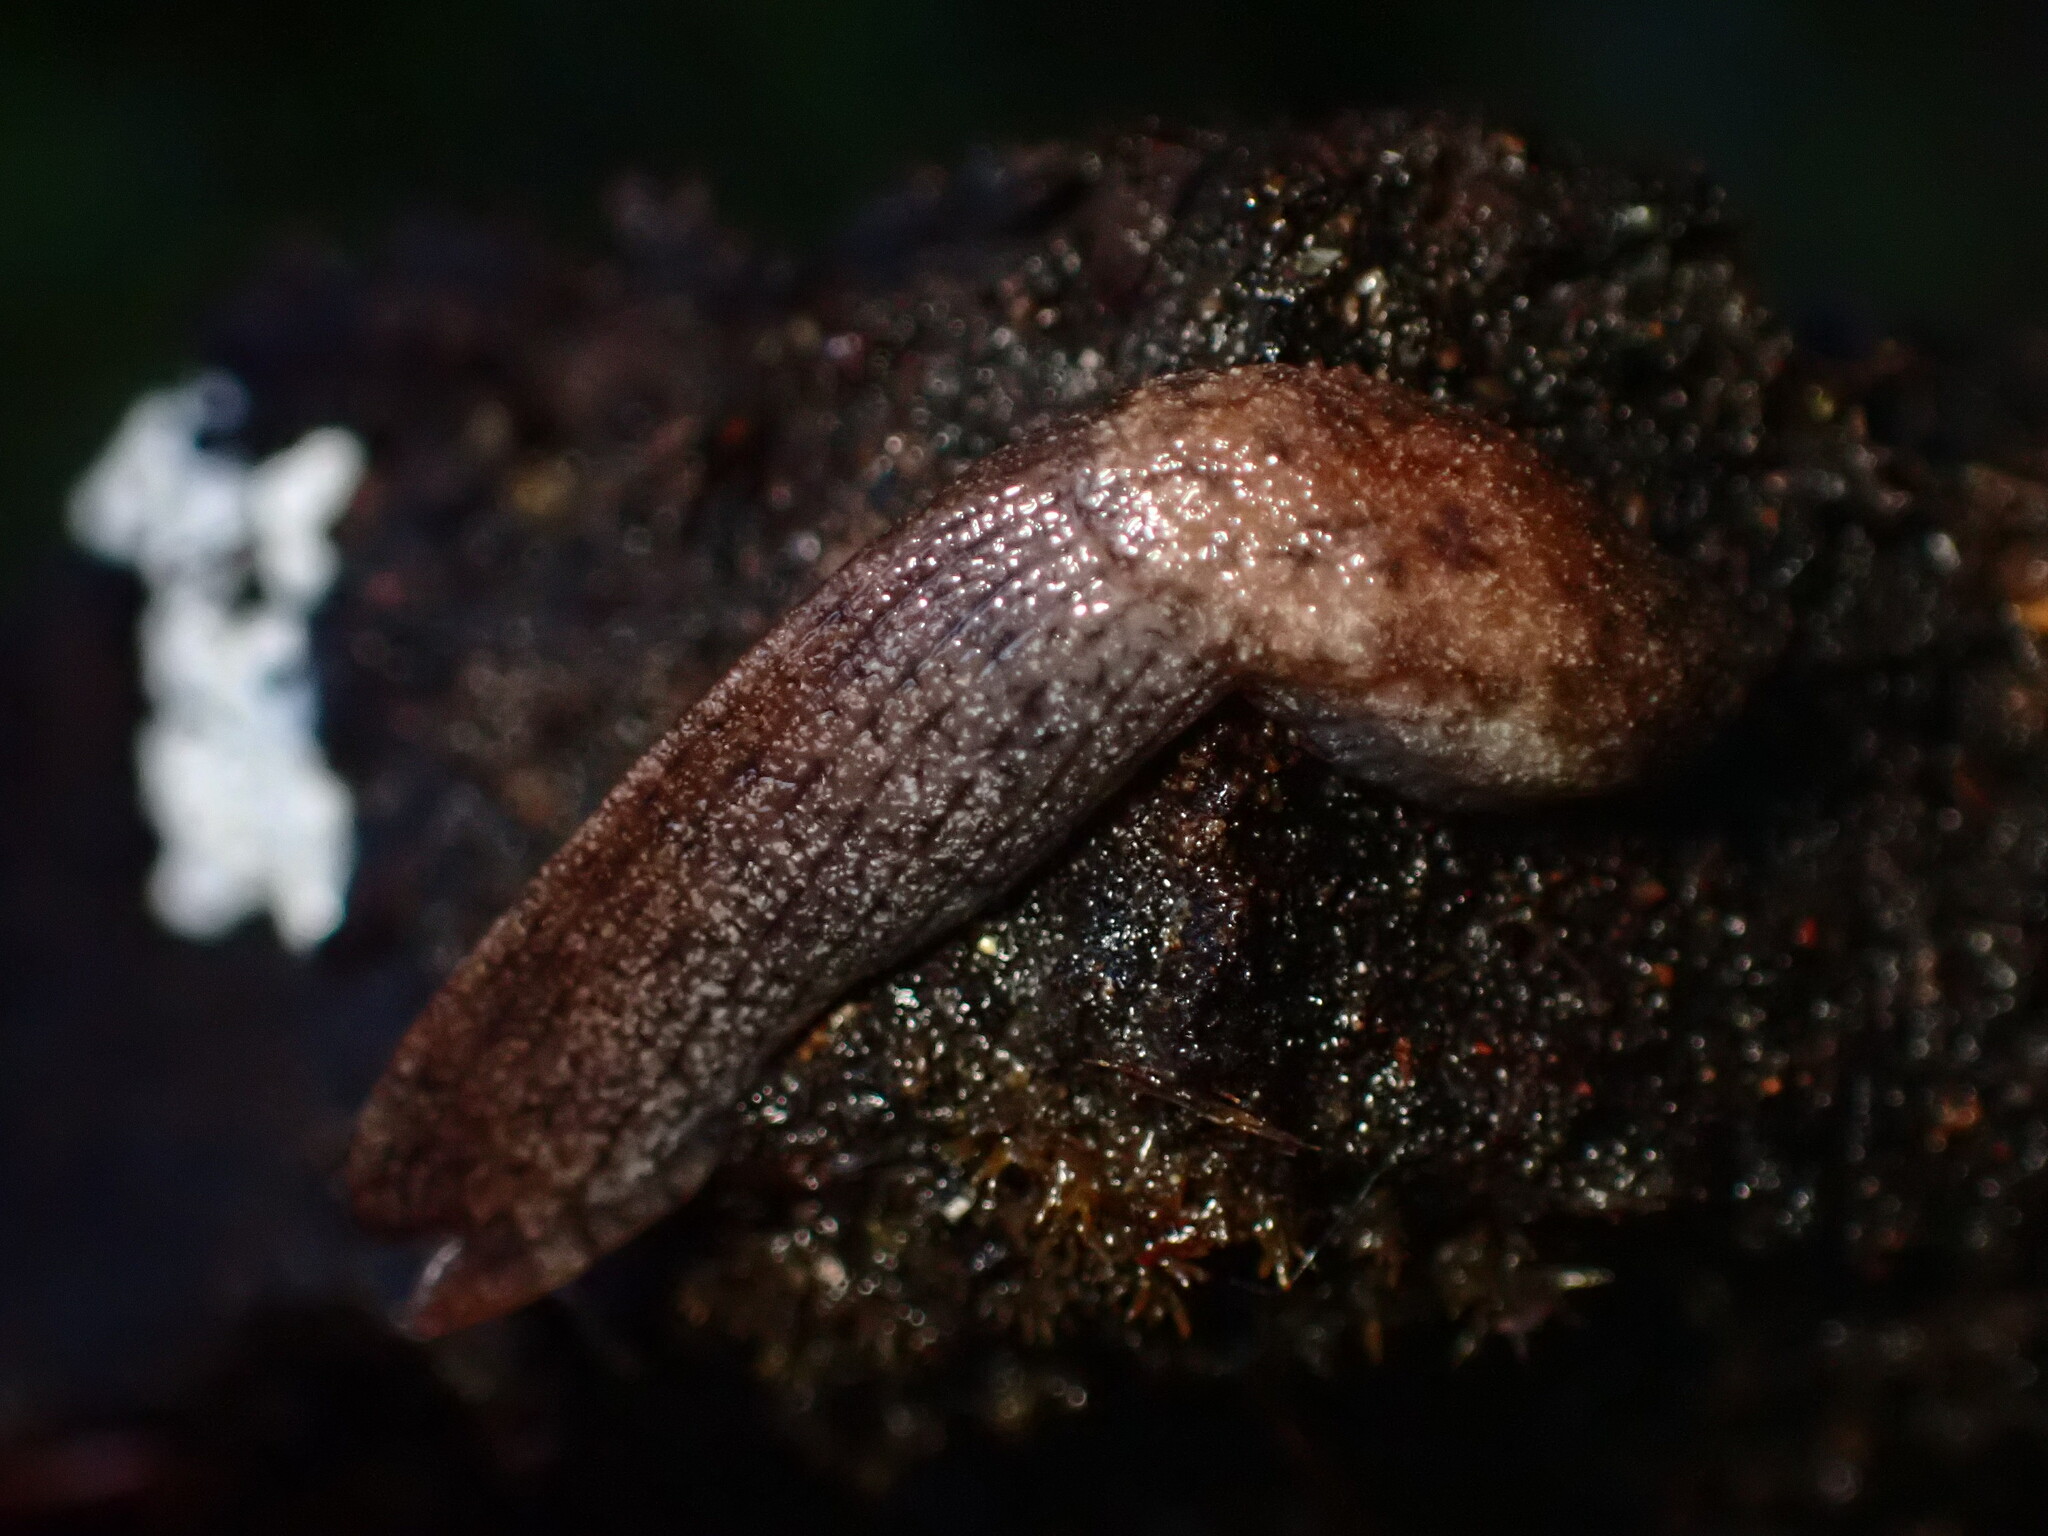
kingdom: Animalia
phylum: Mollusca
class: Gastropoda
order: Stylommatophora
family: Ariolimacidae
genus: Hesperarion
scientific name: Hesperarion niger
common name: Black western slug
